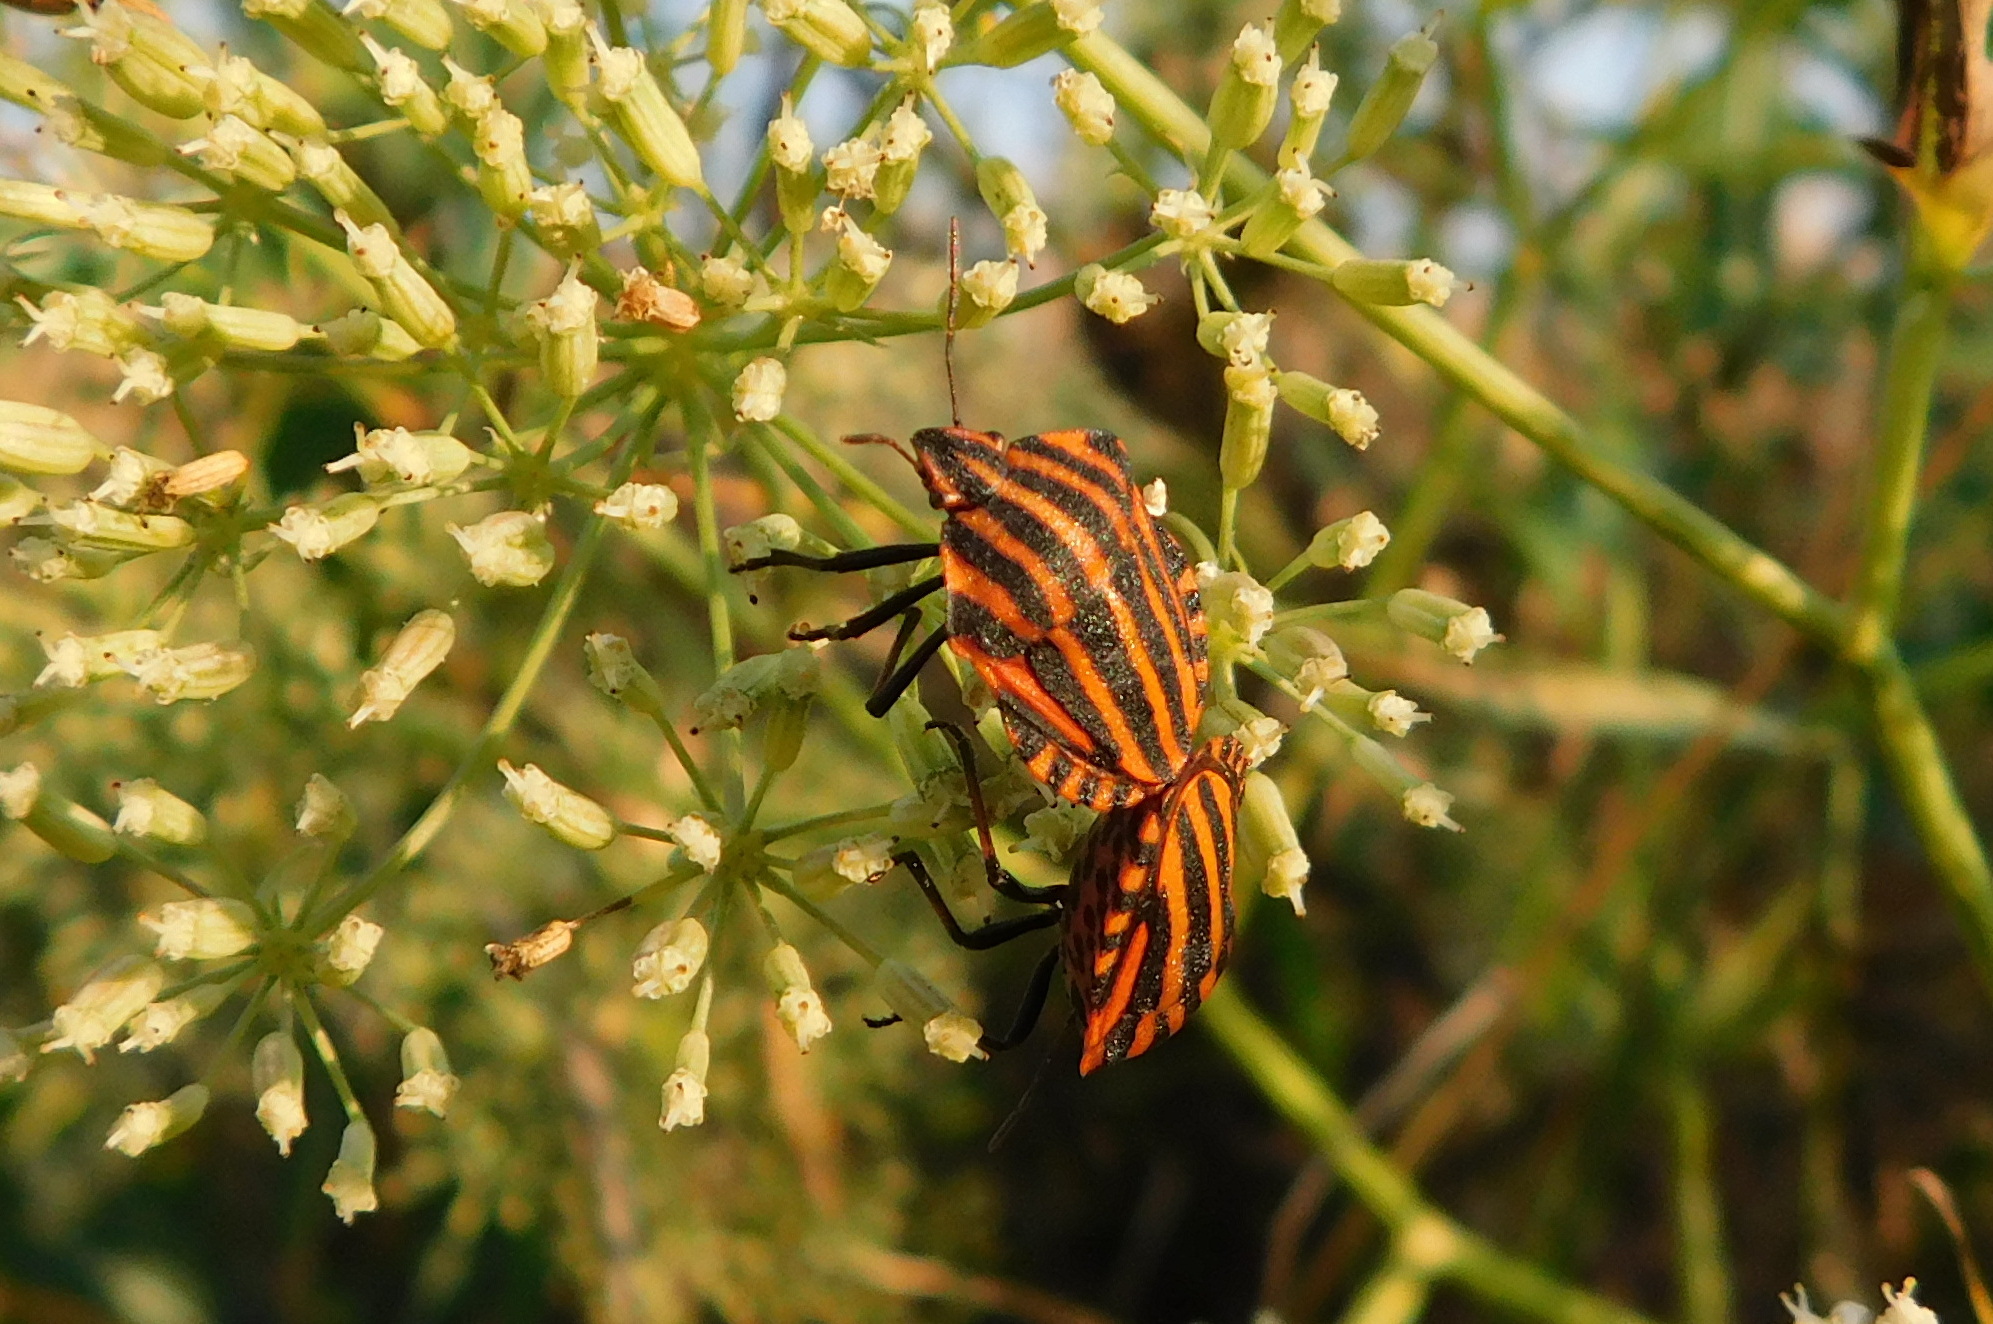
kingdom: Animalia
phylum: Arthropoda
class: Insecta
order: Hemiptera
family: Pentatomidae
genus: Graphosoma
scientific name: Graphosoma italicum
